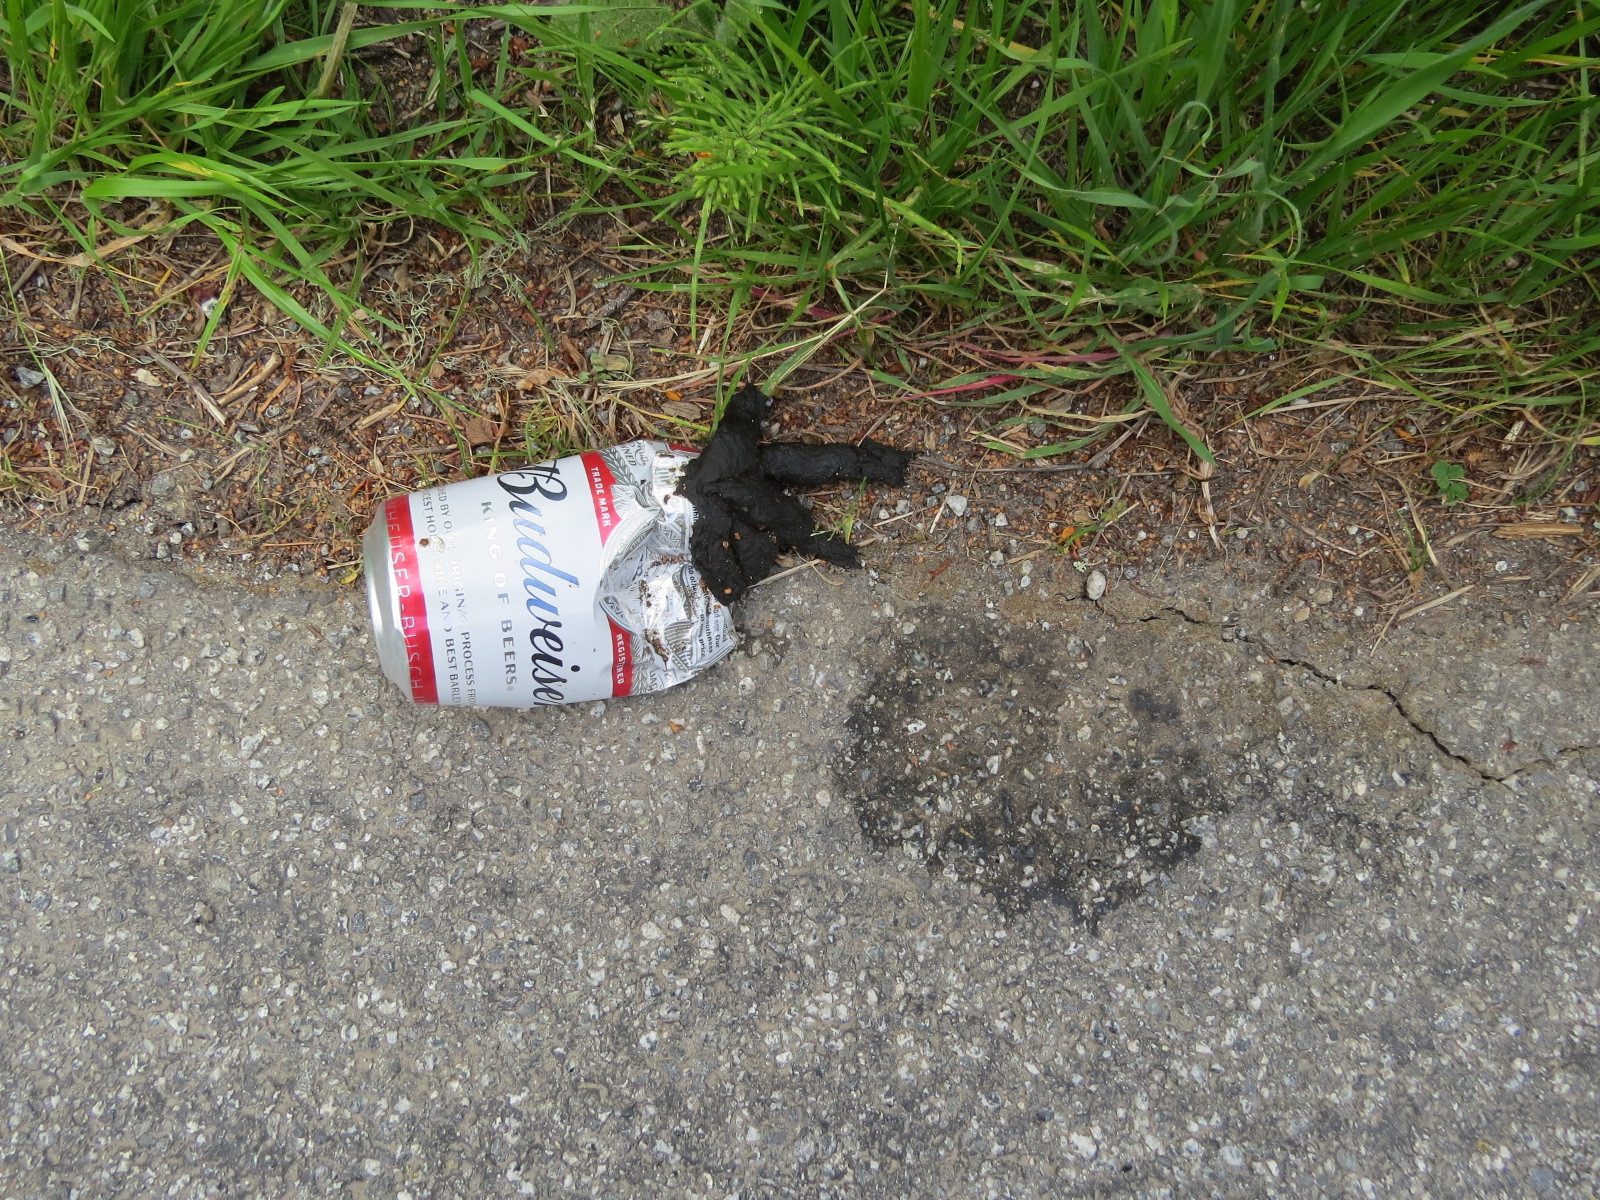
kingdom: Animalia
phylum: Chordata
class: Mammalia
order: Carnivora
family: Canidae
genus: Urocyon
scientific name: Urocyon cinereoargenteus
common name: Gray fox
